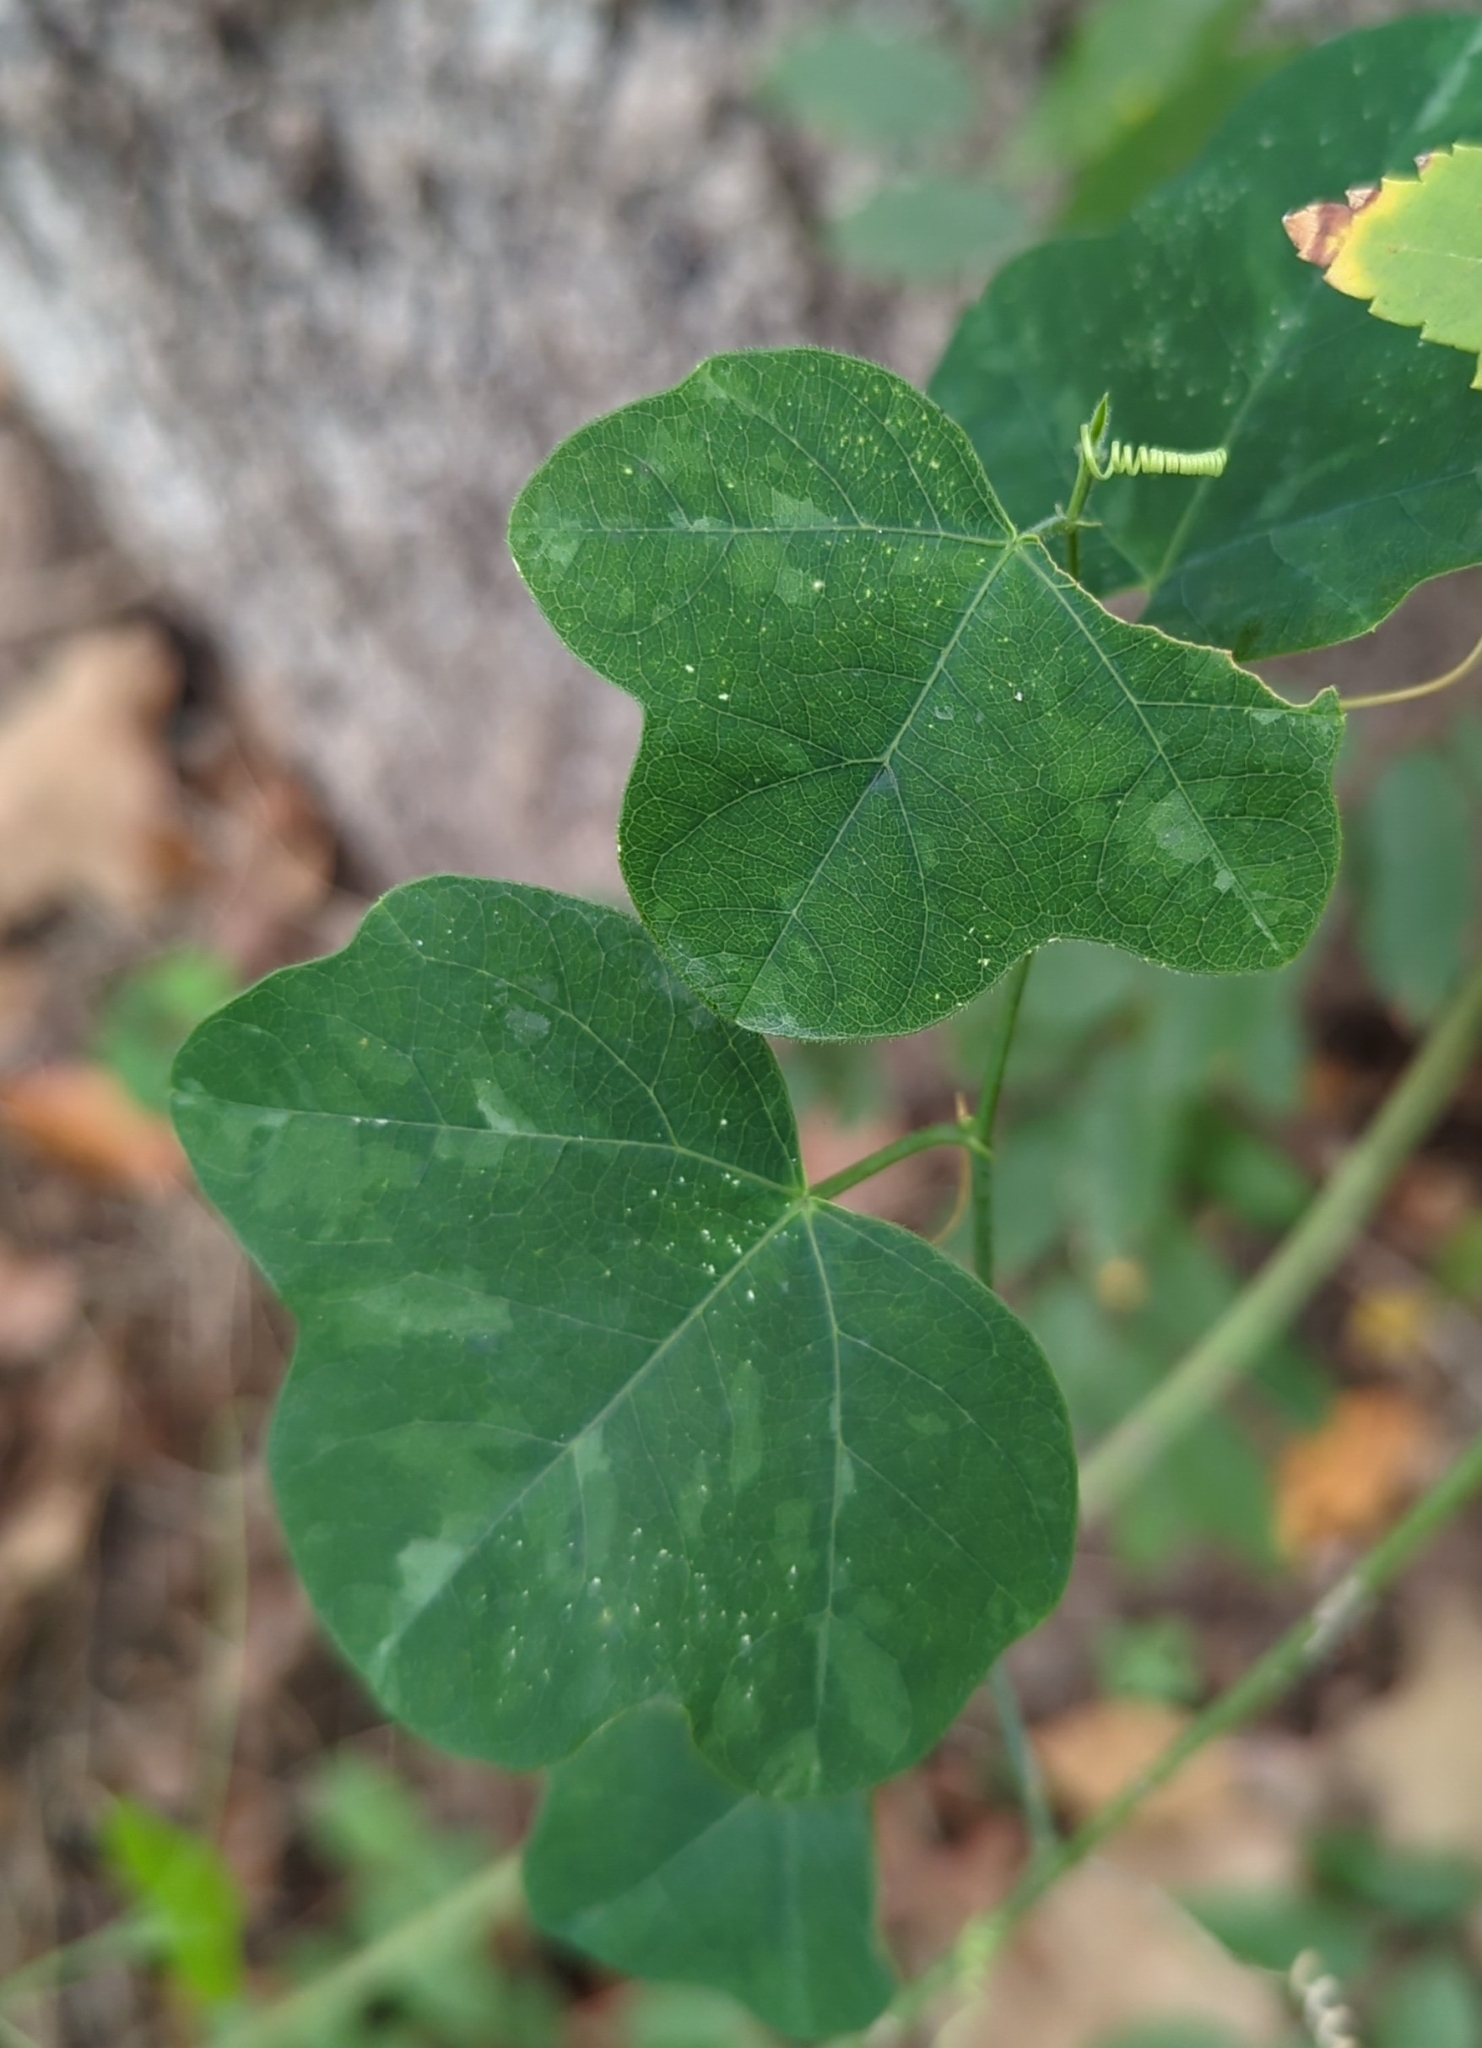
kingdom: Plantae
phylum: Tracheophyta
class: Magnoliopsida
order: Malpighiales
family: Passifloraceae
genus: Passiflora
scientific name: Passiflora lutea
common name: Yellow passionflower
